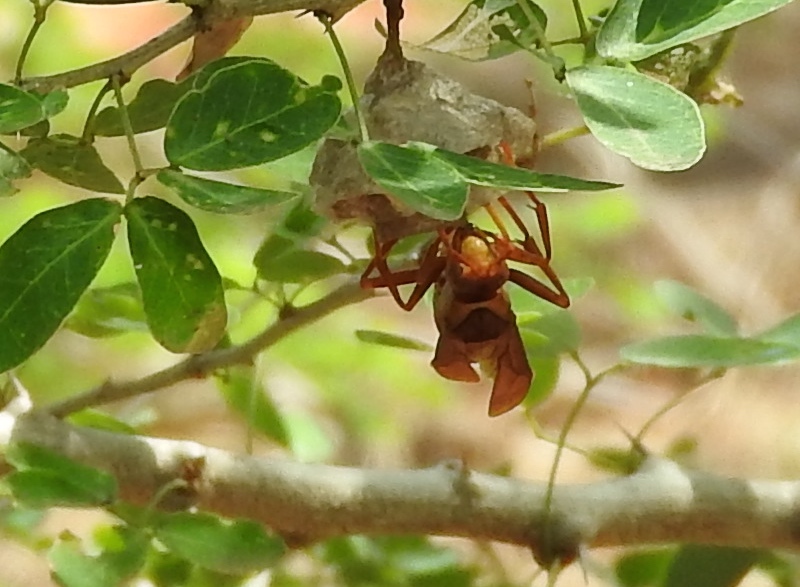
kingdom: Animalia
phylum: Arthropoda
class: Insecta
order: Hymenoptera
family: Eumenidae
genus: Polistes
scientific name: Polistes carnifex
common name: Paper wasp
